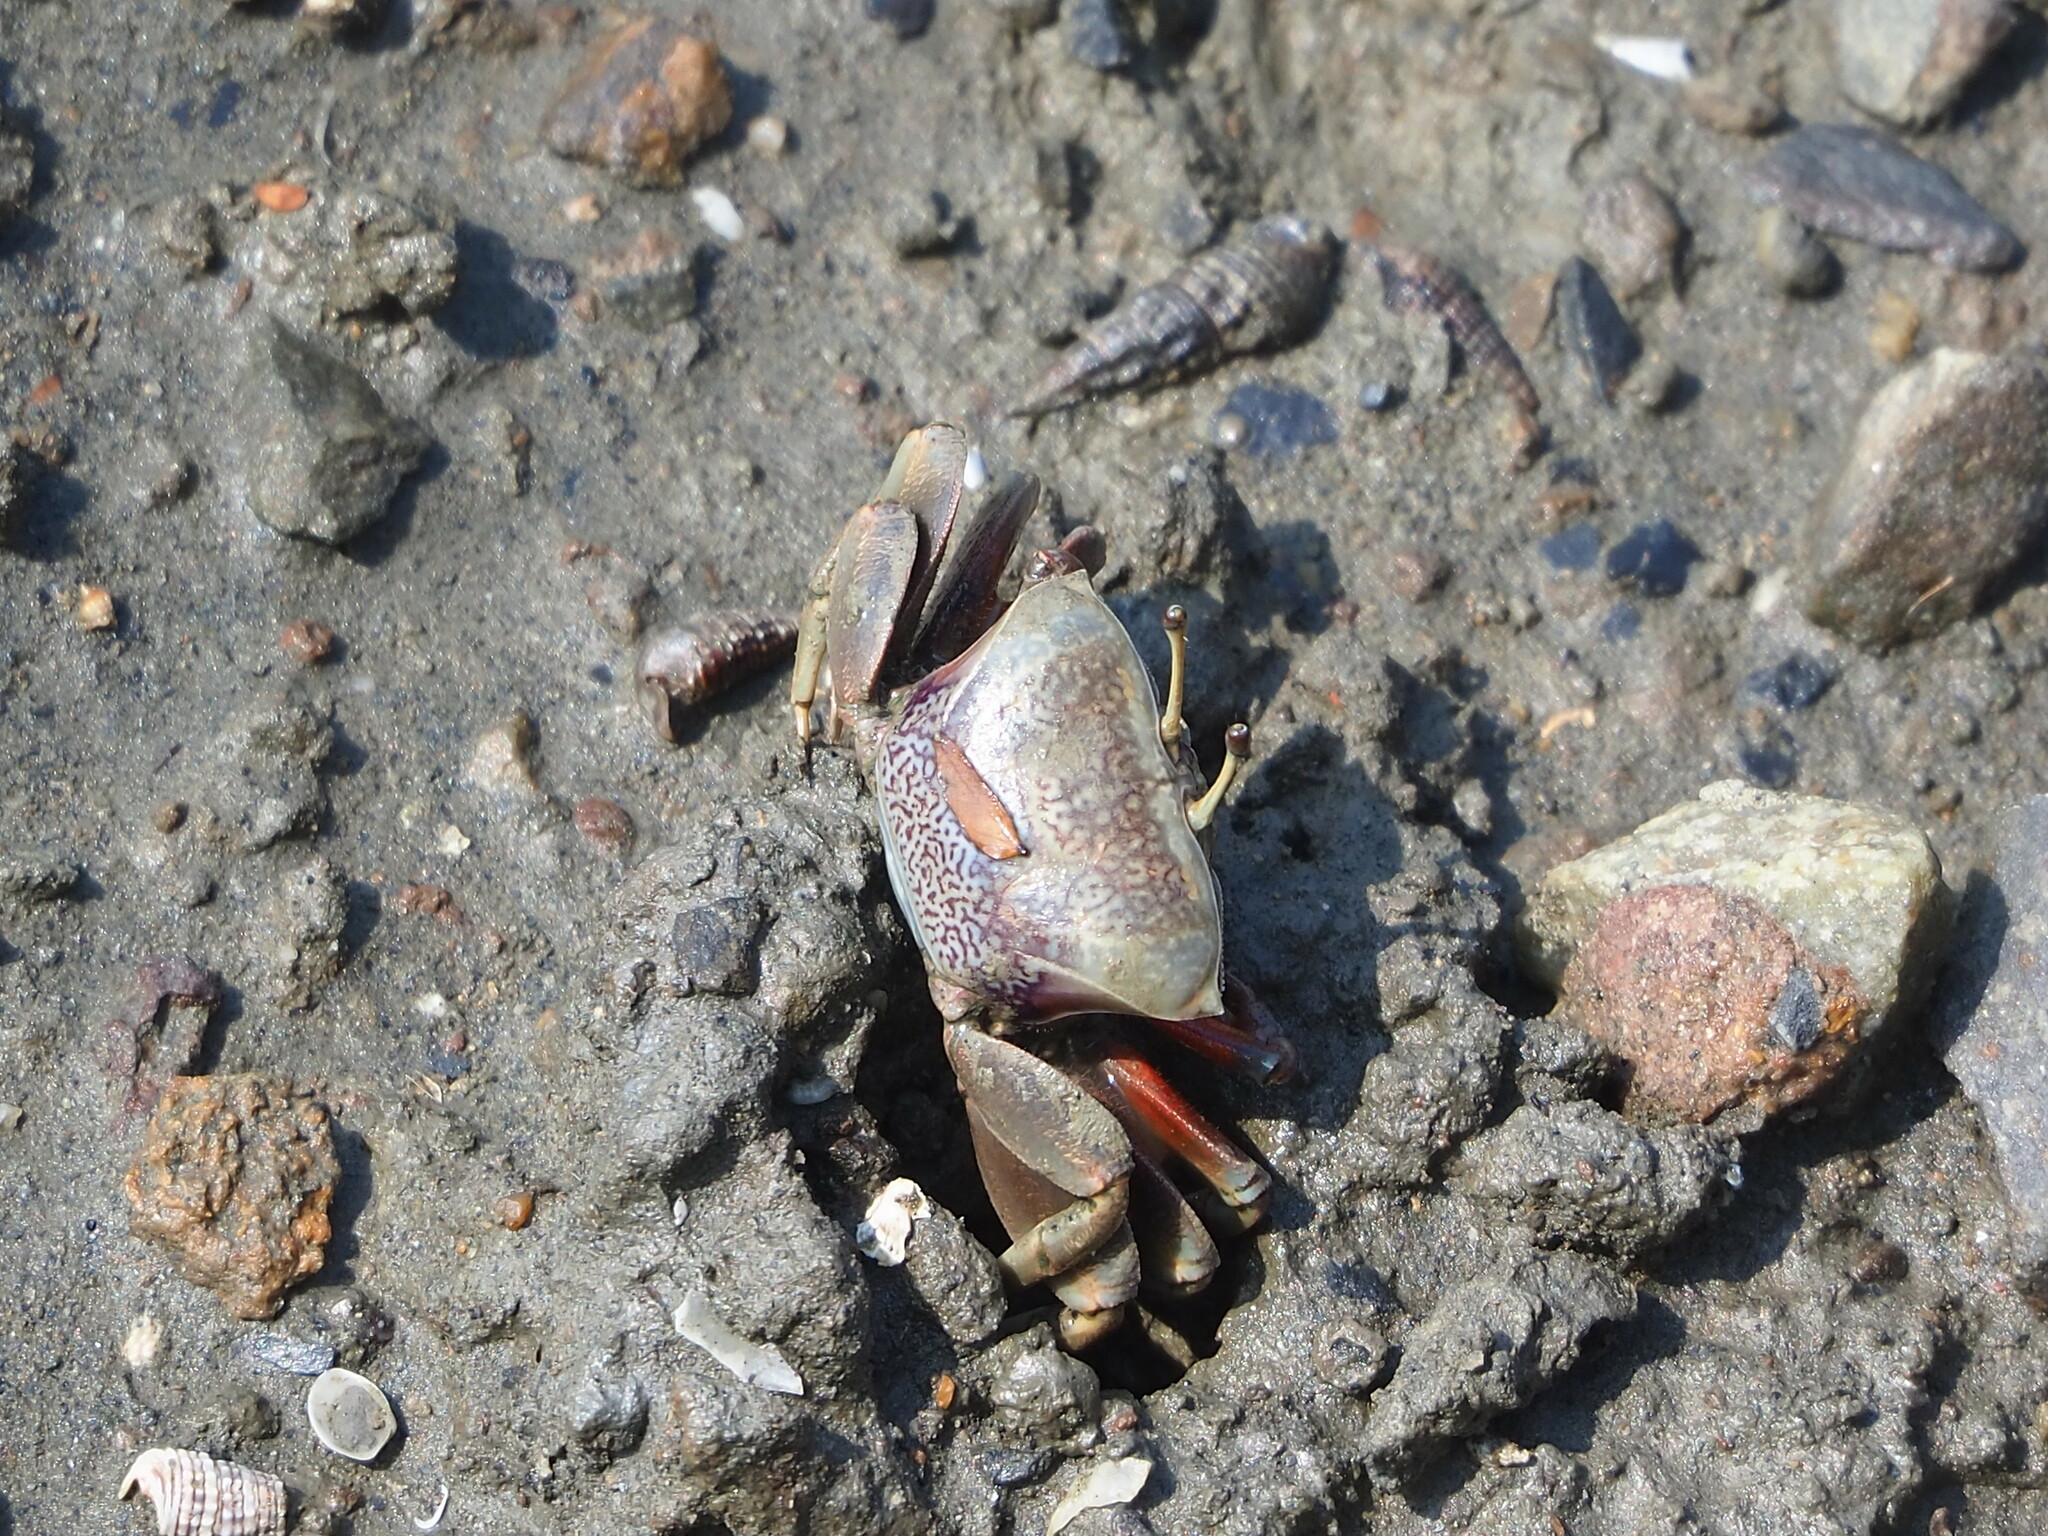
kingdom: Animalia
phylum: Arthropoda
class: Malacostraca
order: Decapoda
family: Ocypodidae
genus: Tubuca
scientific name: Tubuca arcuata
